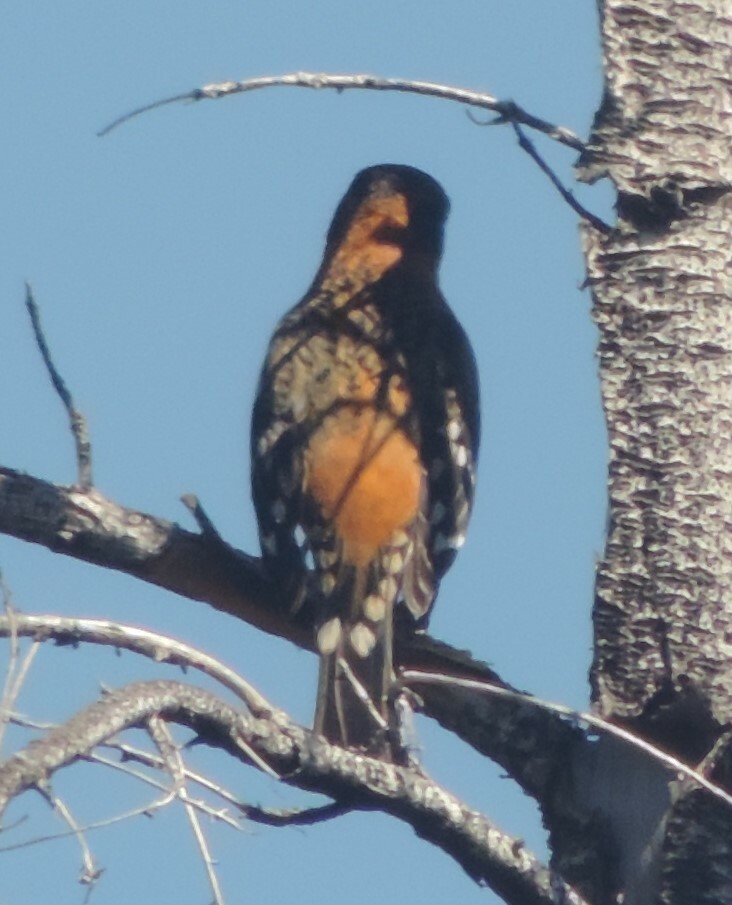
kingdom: Animalia
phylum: Chordata
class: Aves
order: Passeriformes
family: Cardinalidae
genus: Pheucticus
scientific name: Pheucticus melanocephalus
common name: Black-headed grosbeak
